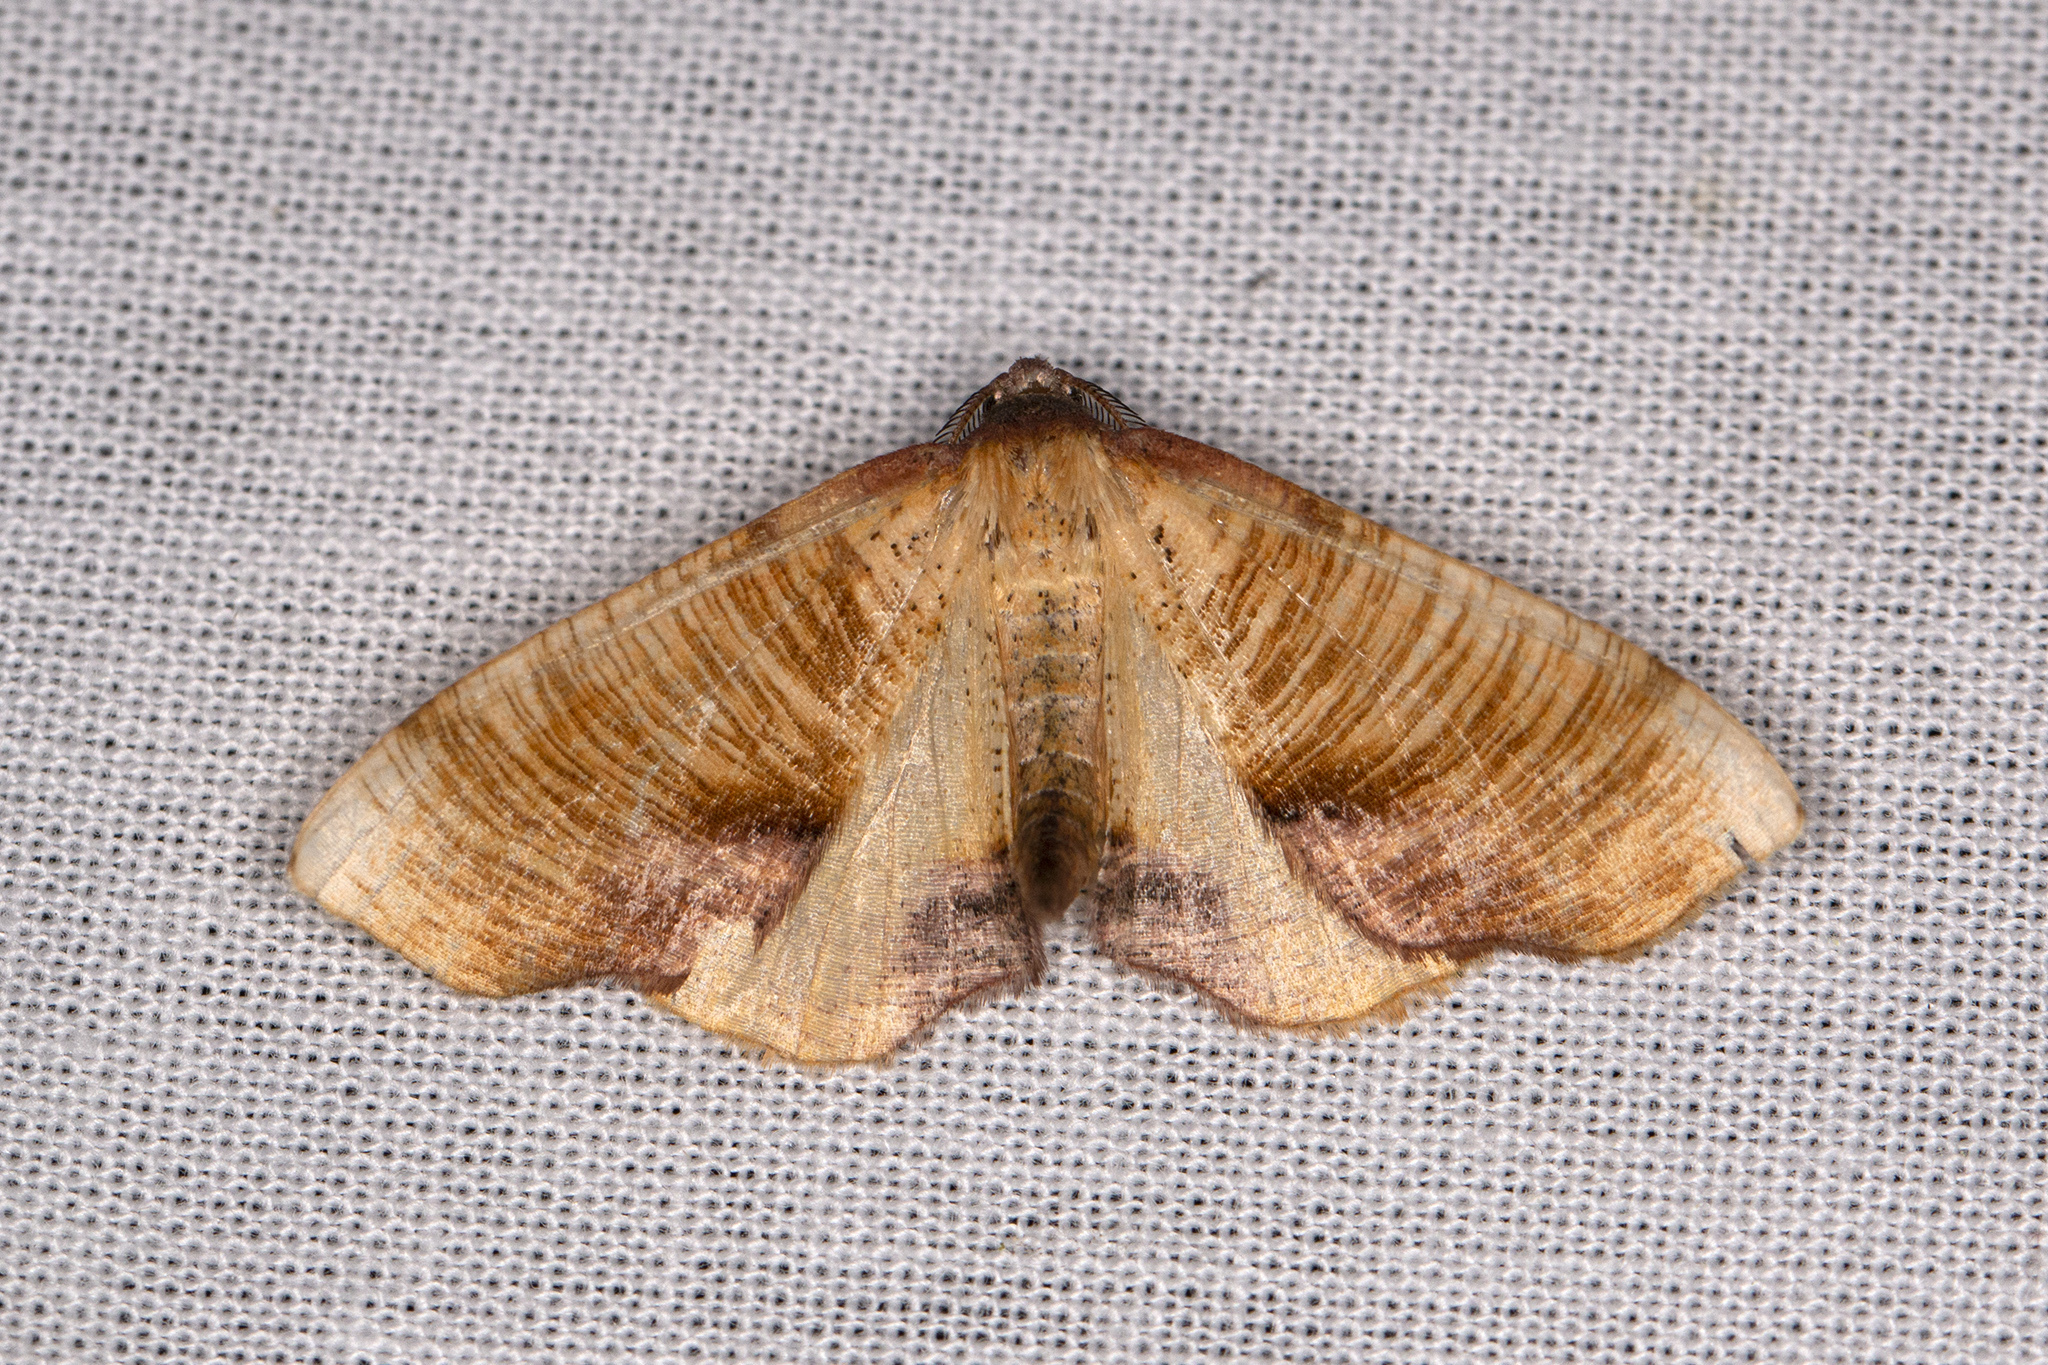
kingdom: Animalia
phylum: Arthropoda
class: Insecta
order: Lepidoptera
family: Geometridae
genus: Plagodis
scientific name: Plagodis dolabraria
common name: Scorched wing
